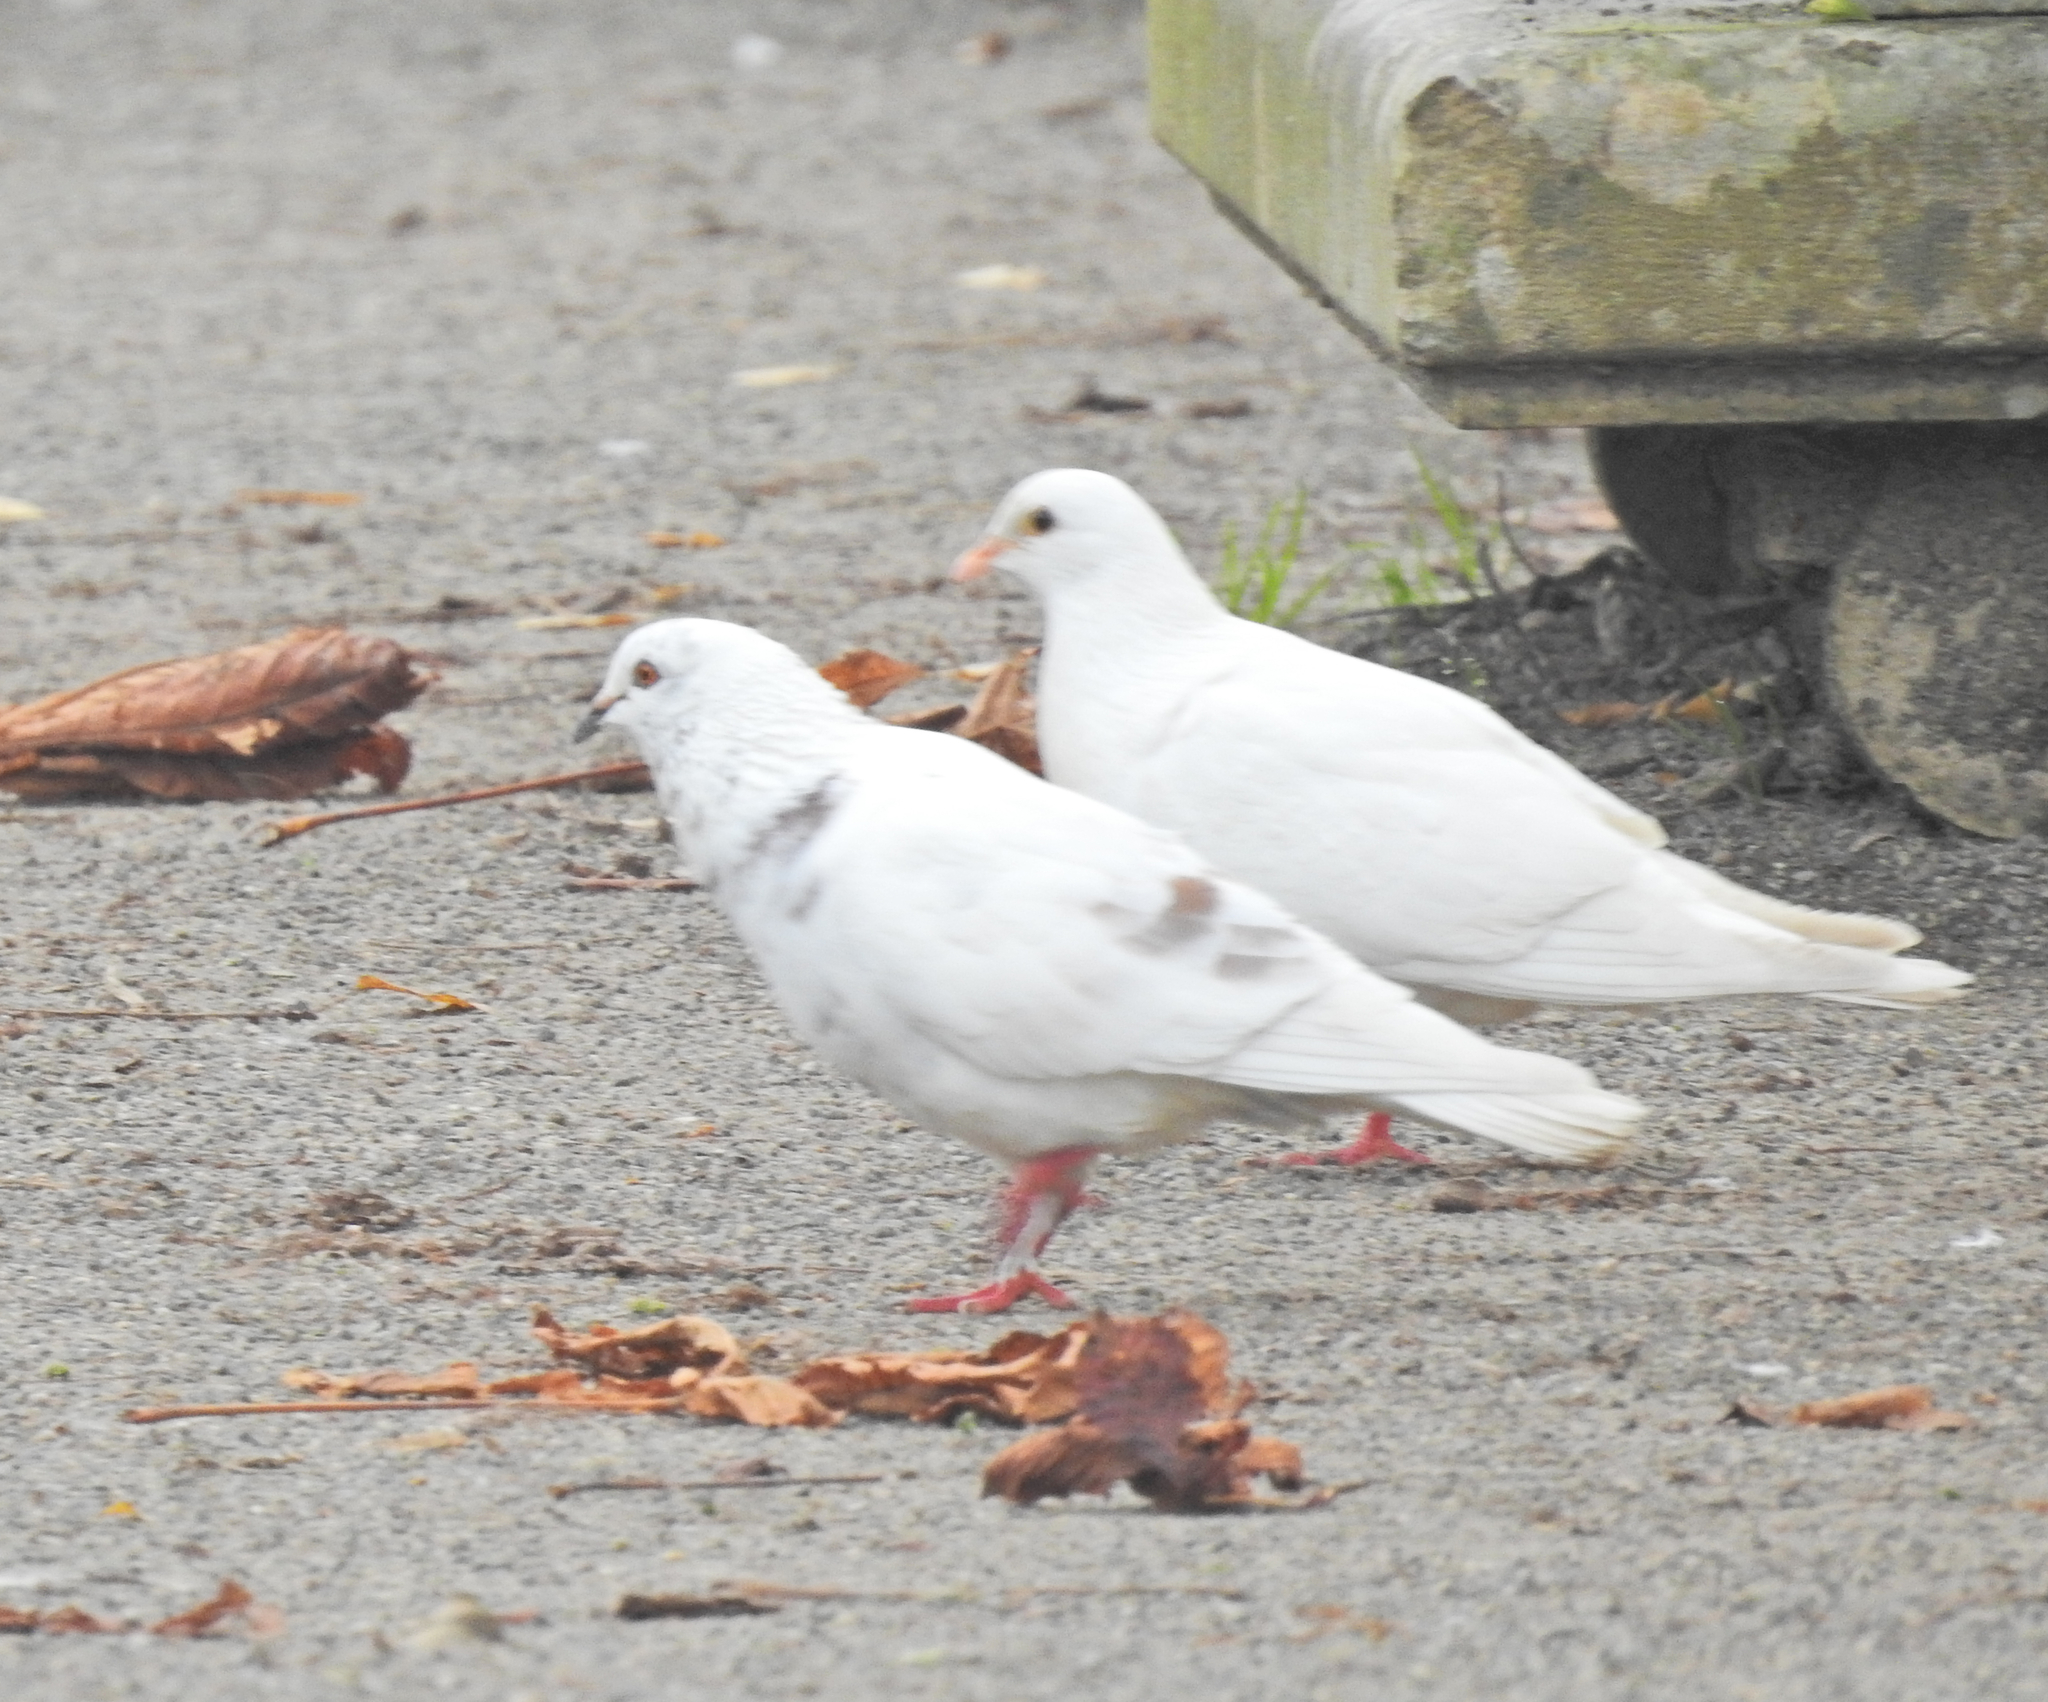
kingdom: Animalia
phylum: Chordata
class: Aves
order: Columbiformes
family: Columbidae
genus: Columba
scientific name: Columba livia
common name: Rock pigeon
